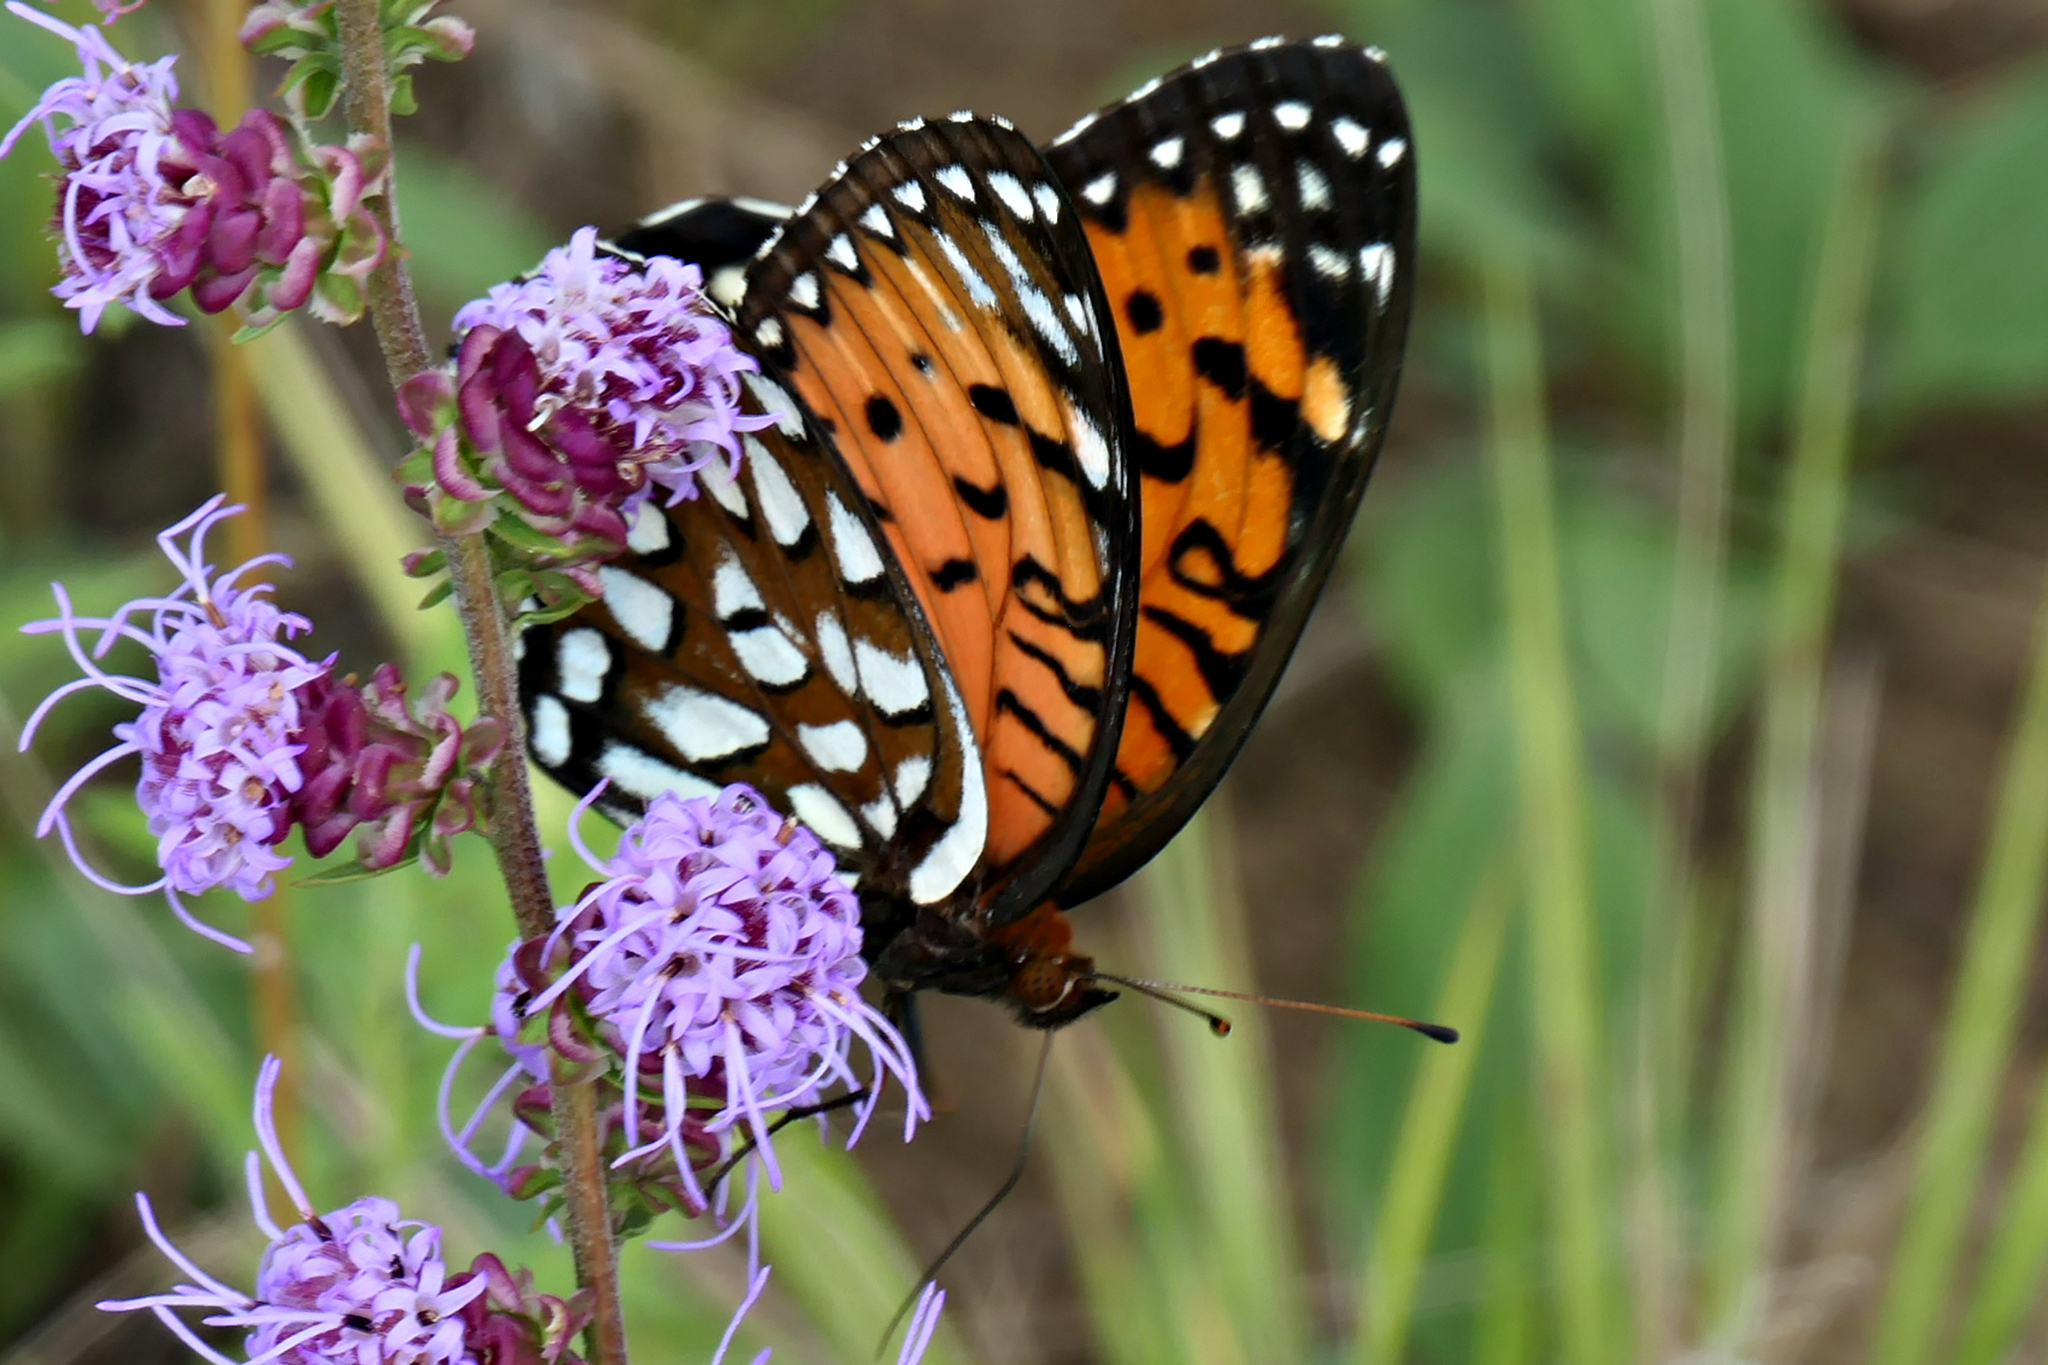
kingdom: Animalia
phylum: Arthropoda
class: Insecta
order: Lepidoptera
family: Nymphalidae
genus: Speyeria
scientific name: Speyeria idalia
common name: Regal fritillary
